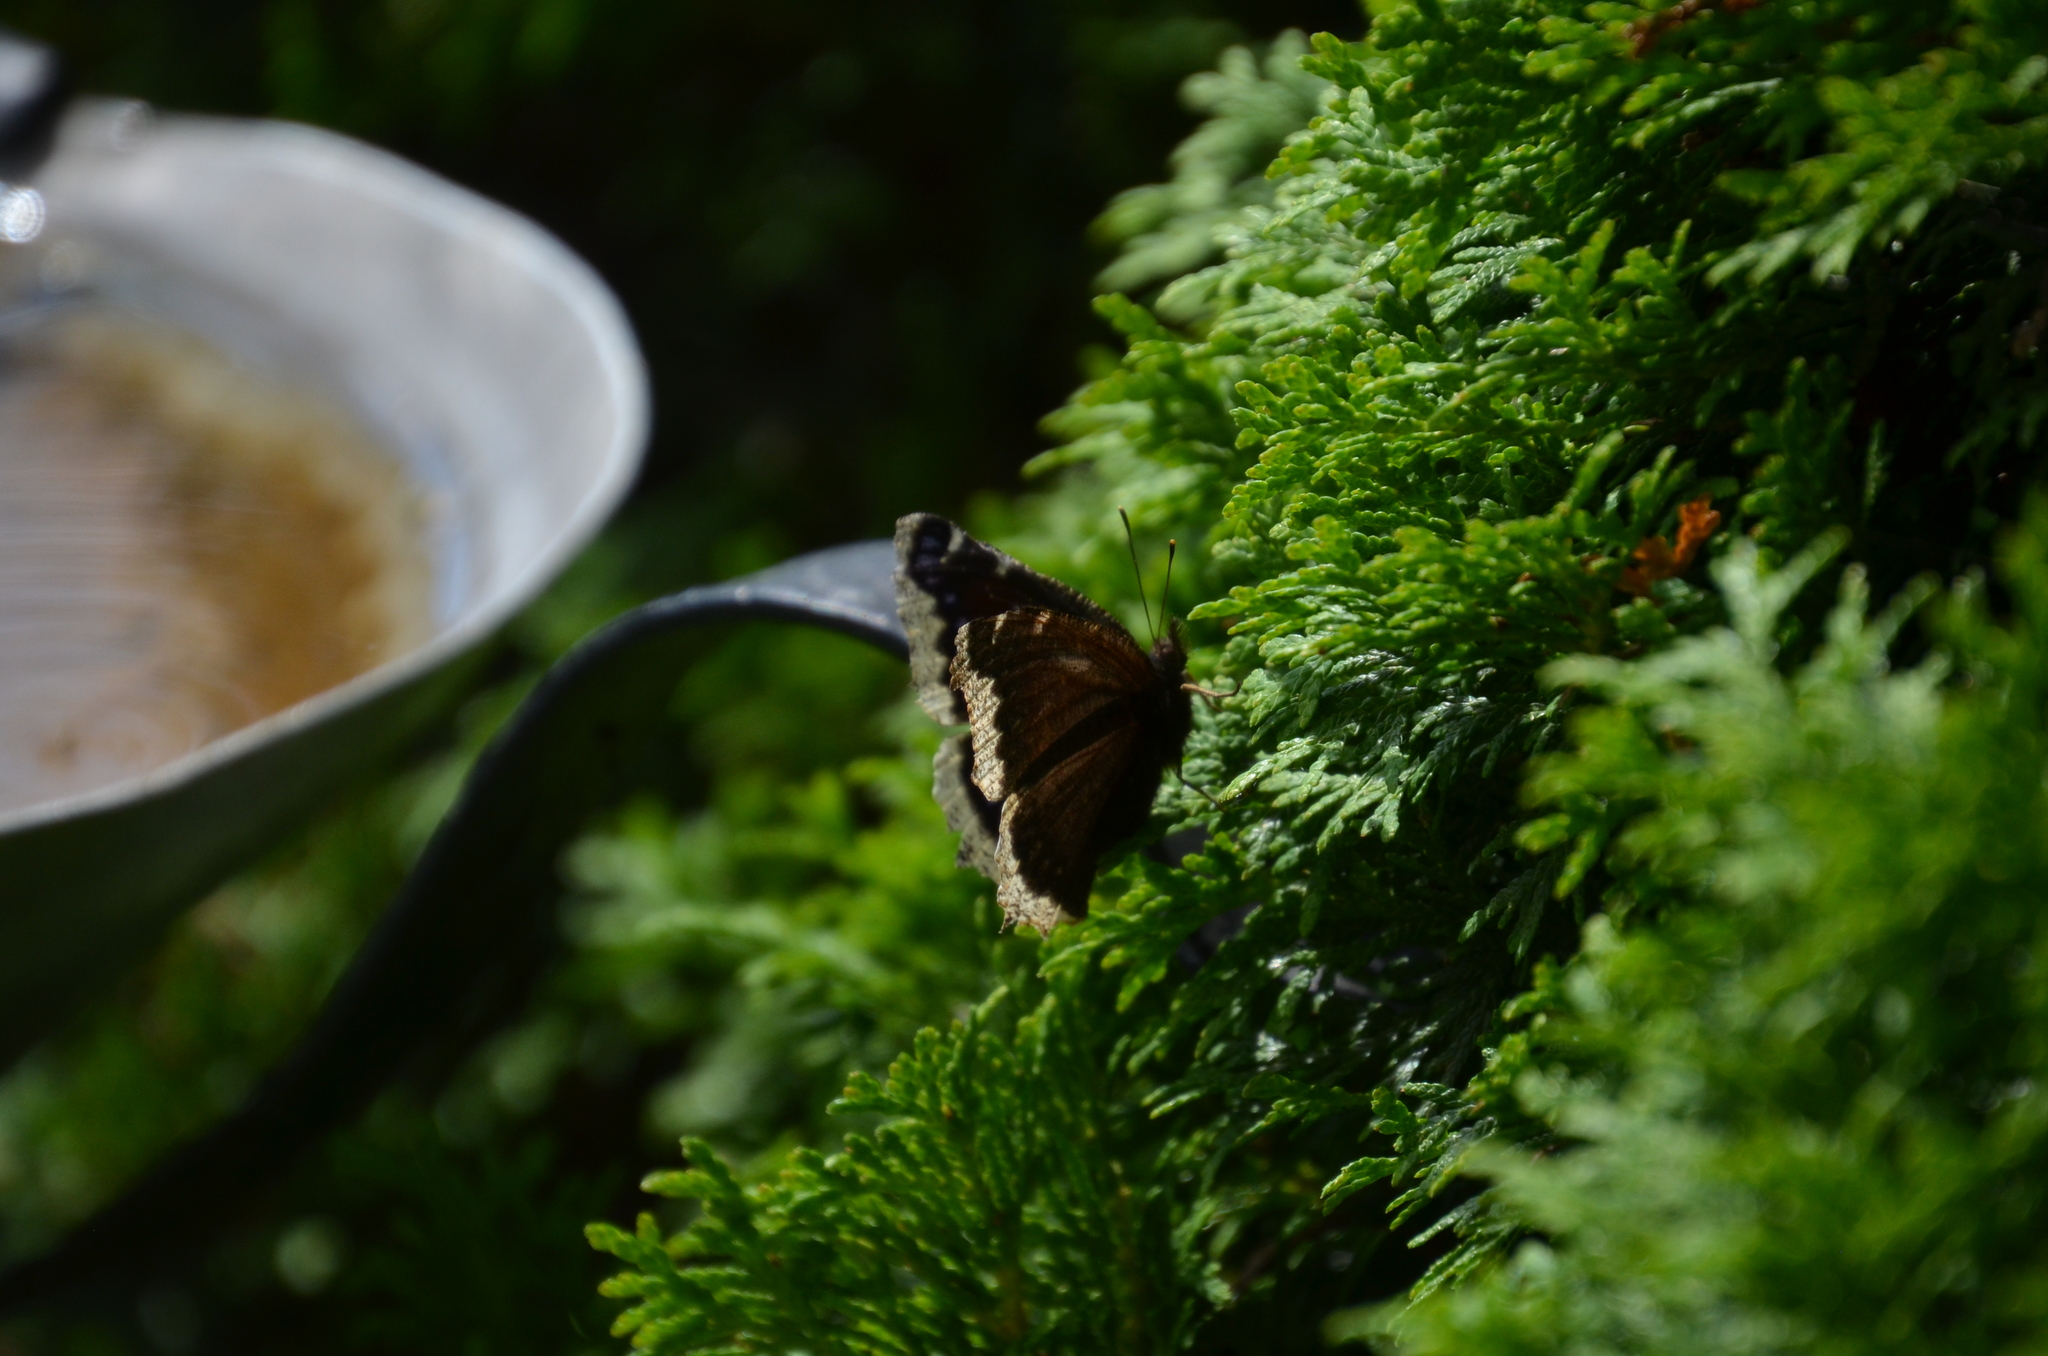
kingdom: Animalia
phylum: Arthropoda
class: Insecta
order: Lepidoptera
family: Nymphalidae
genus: Nymphalis
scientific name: Nymphalis antiopa
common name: Camberwell beauty
